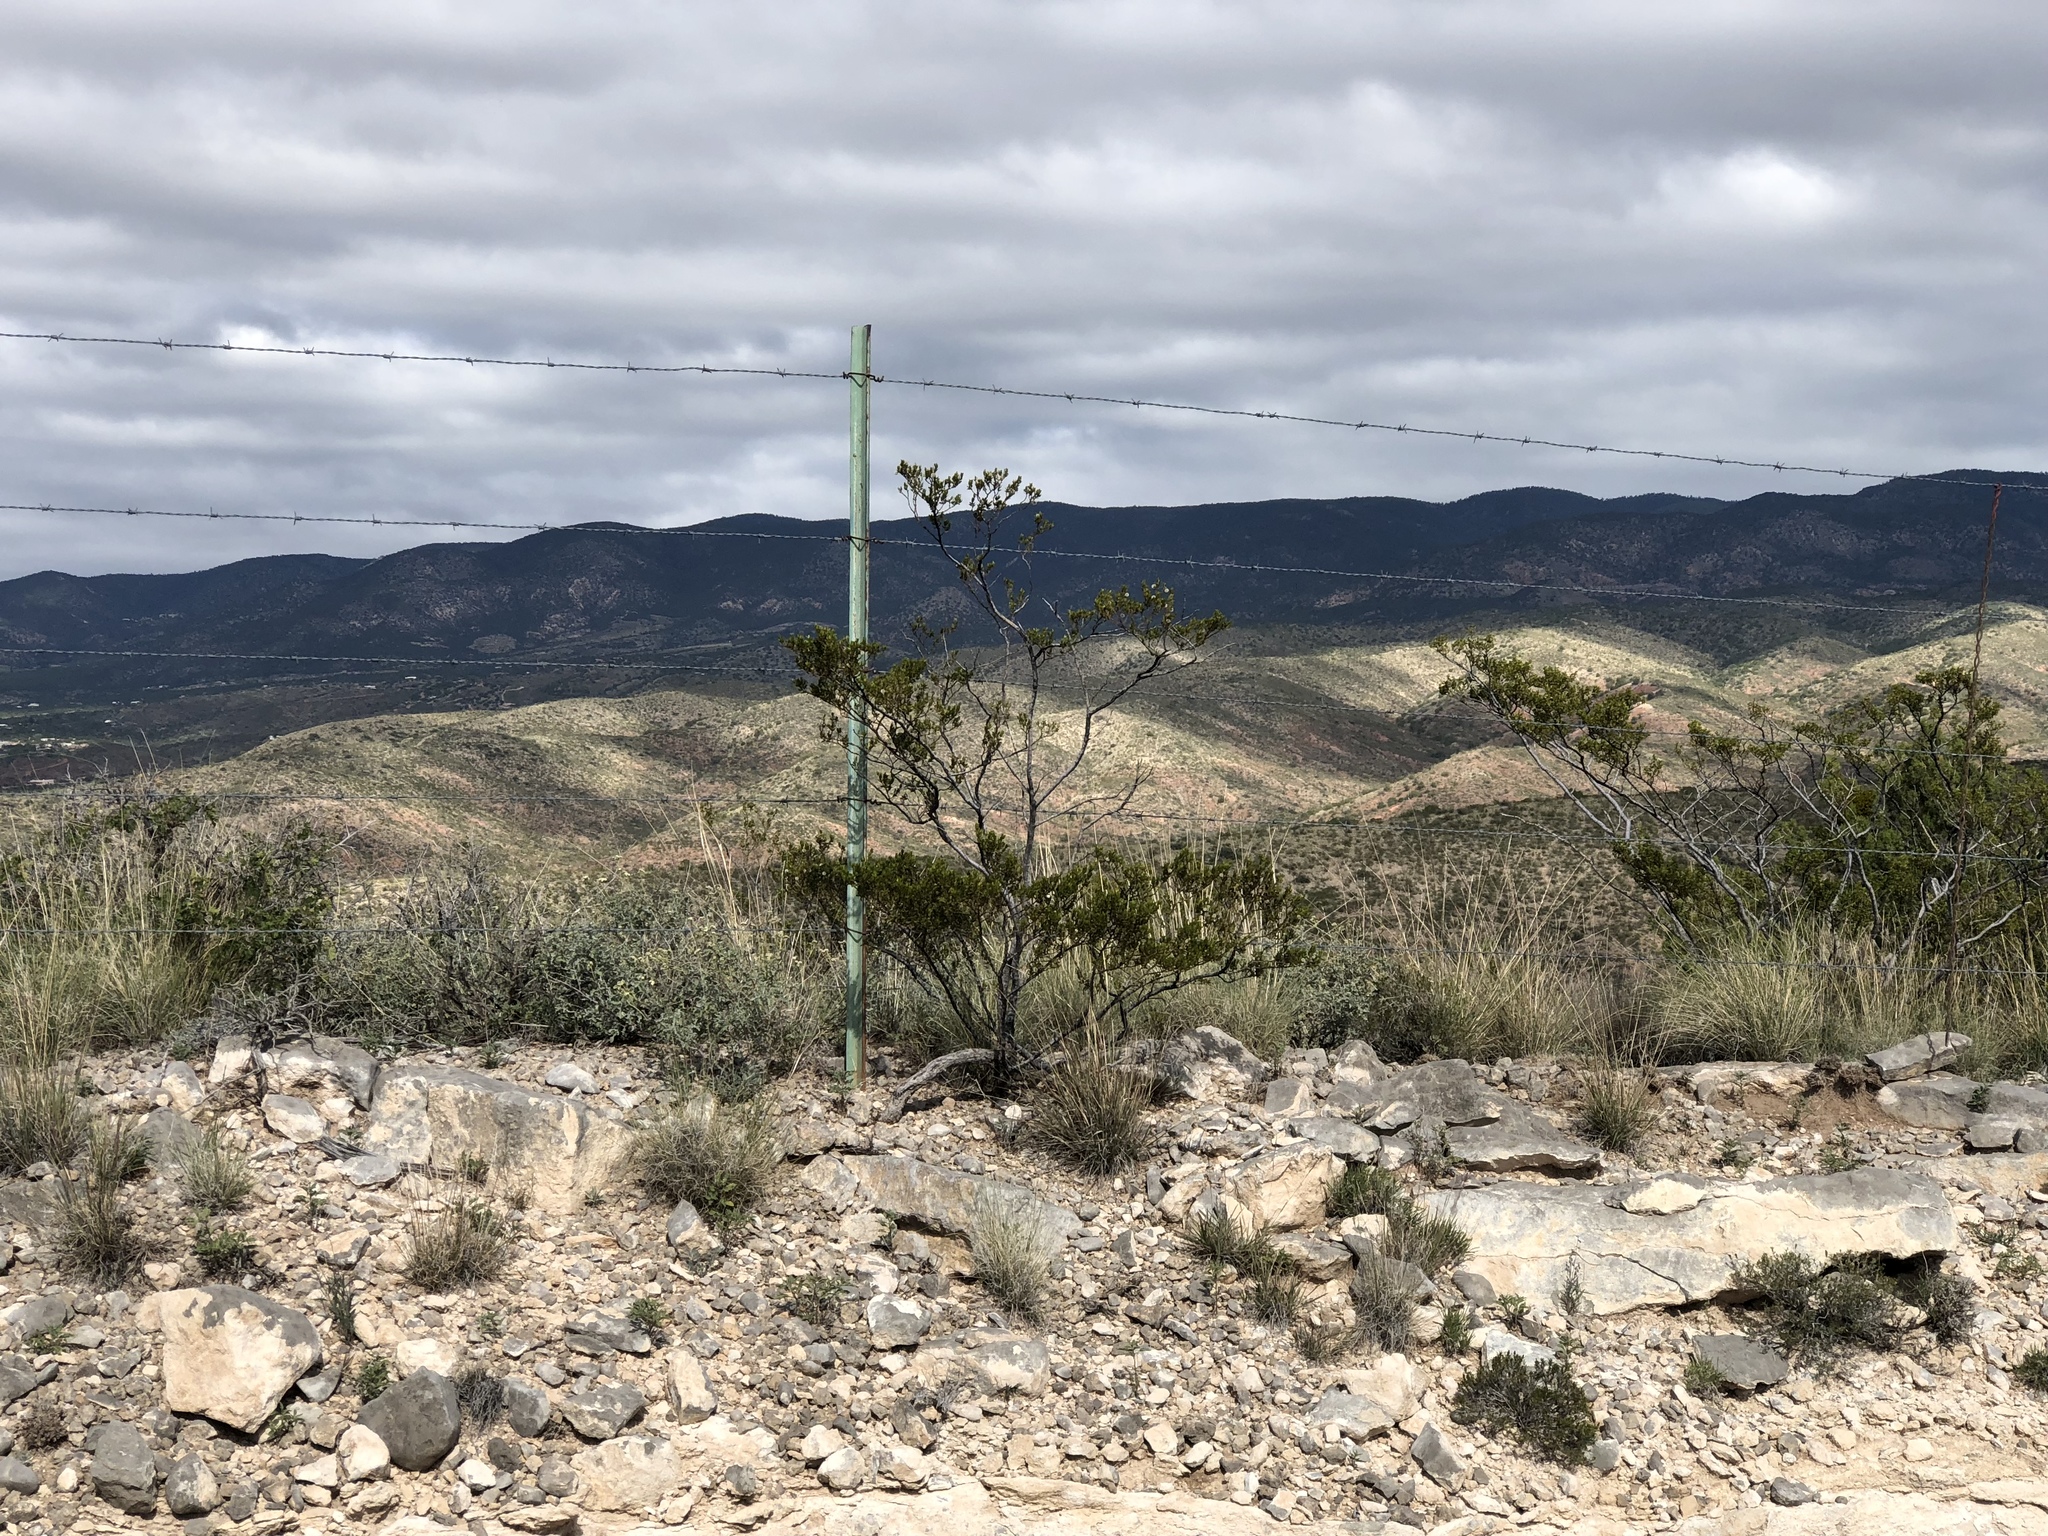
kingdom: Plantae
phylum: Tracheophyta
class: Magnoliopsida
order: Zygophyllales
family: Zygophyllaceae
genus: Larrea
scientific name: Larrea tridentata
